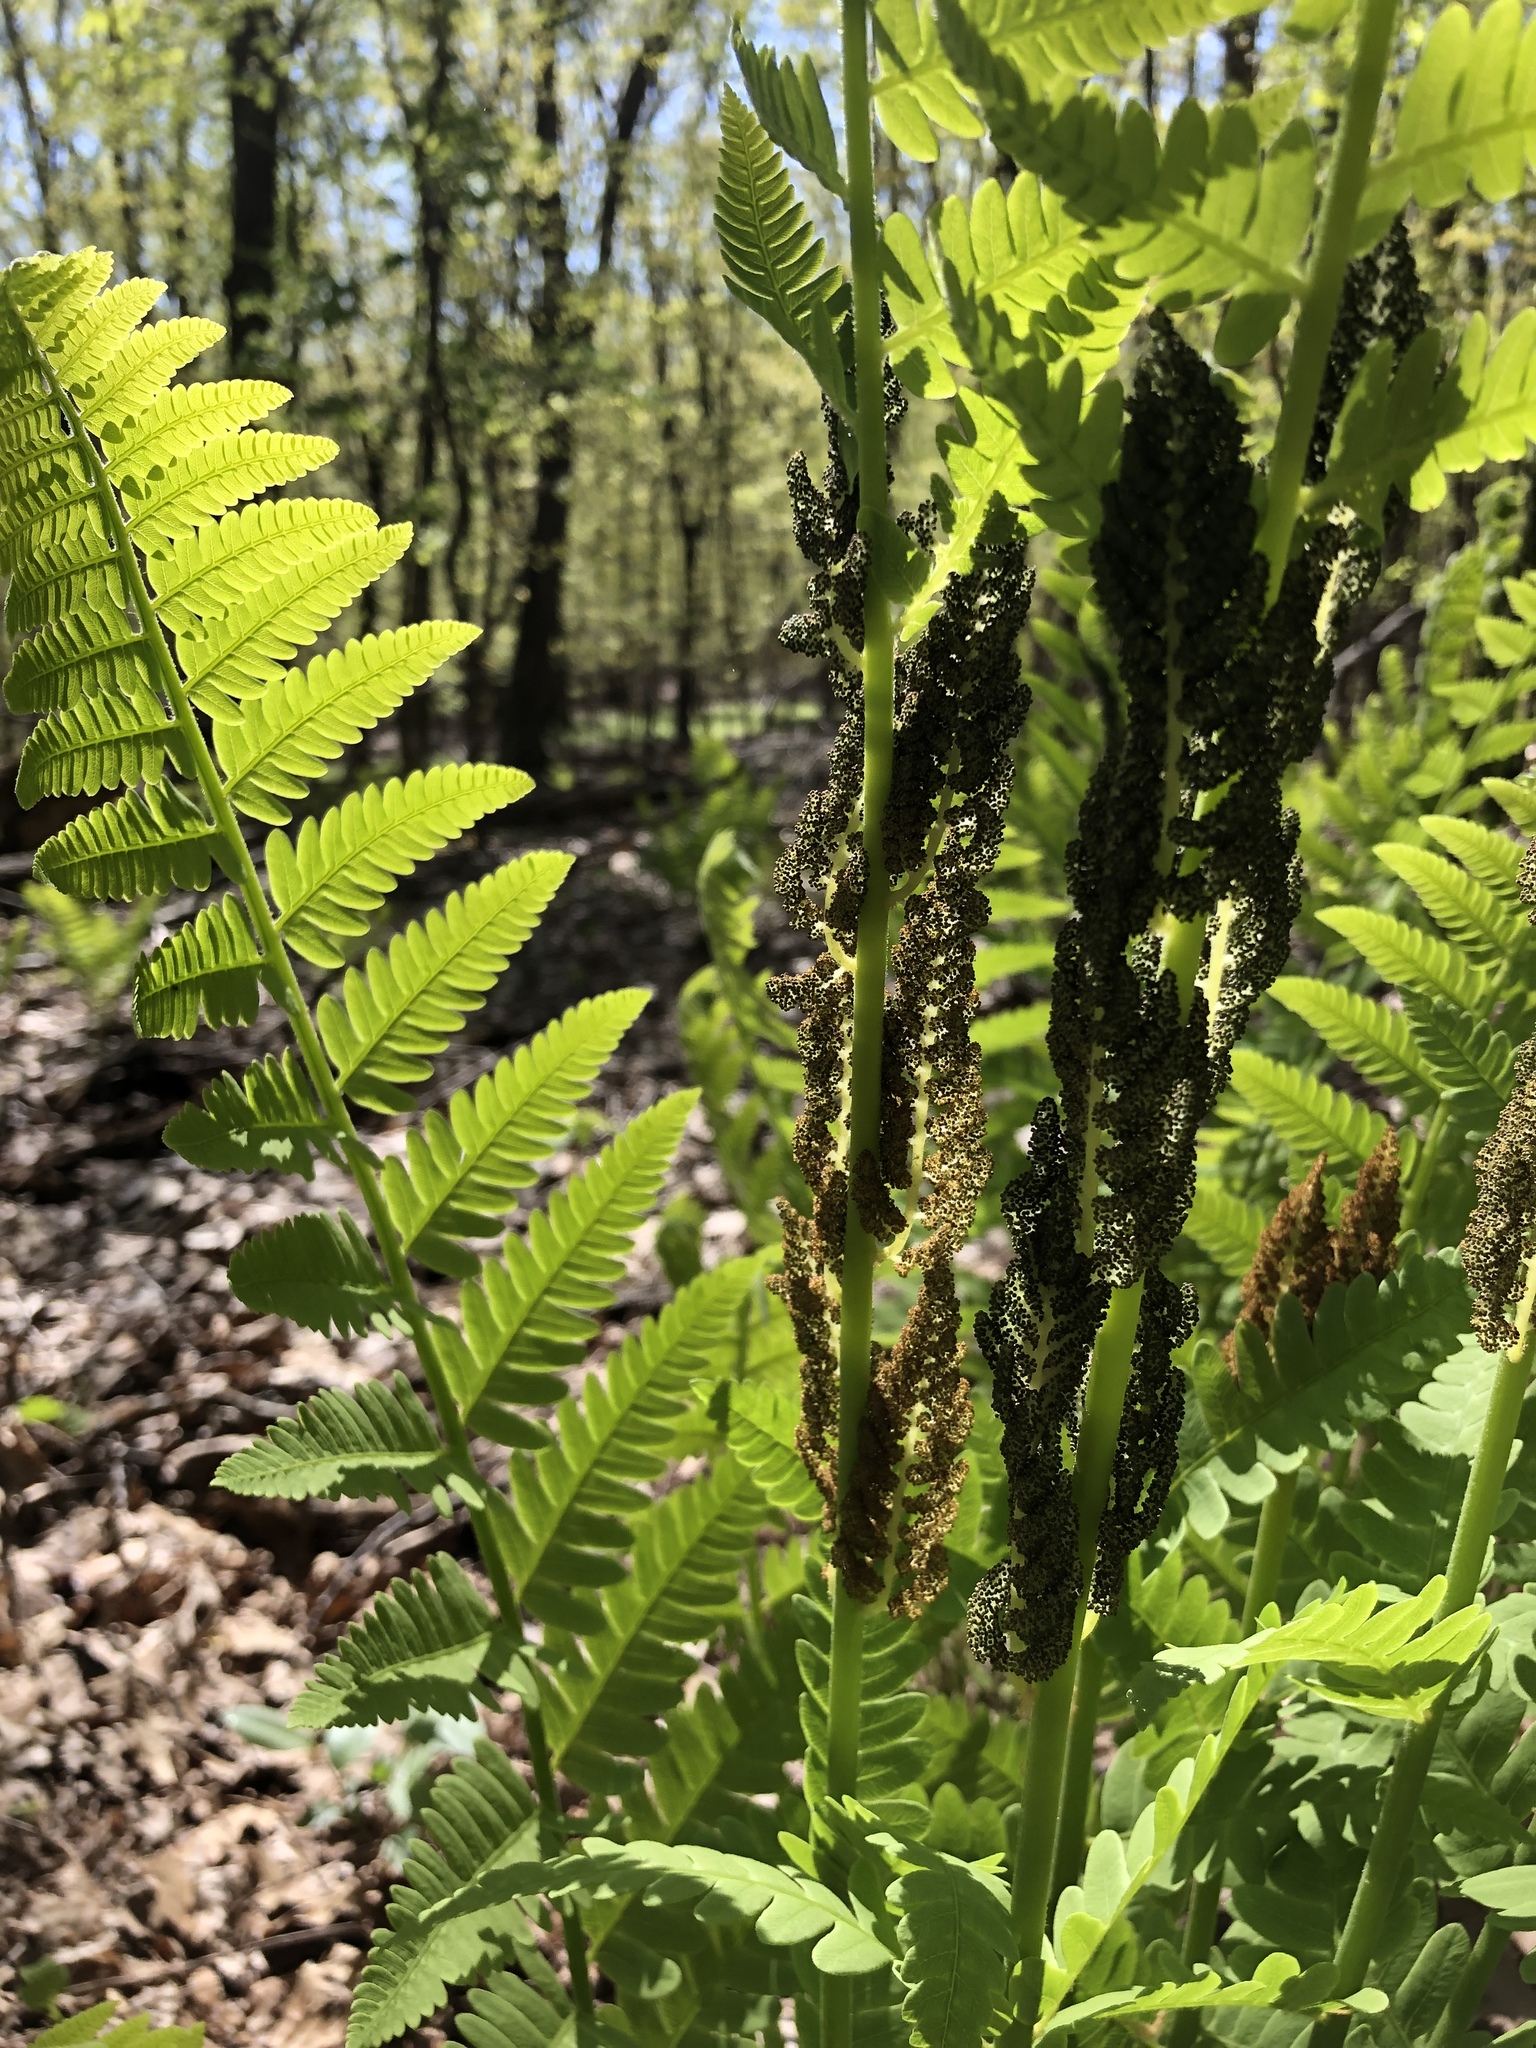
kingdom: Plantae
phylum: Tracheophyta
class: Polypodiopsida
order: Osmundales
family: Osmundaceae
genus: Claytosmunda
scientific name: Claytosmunda claytoniana
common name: Clayton's fern
